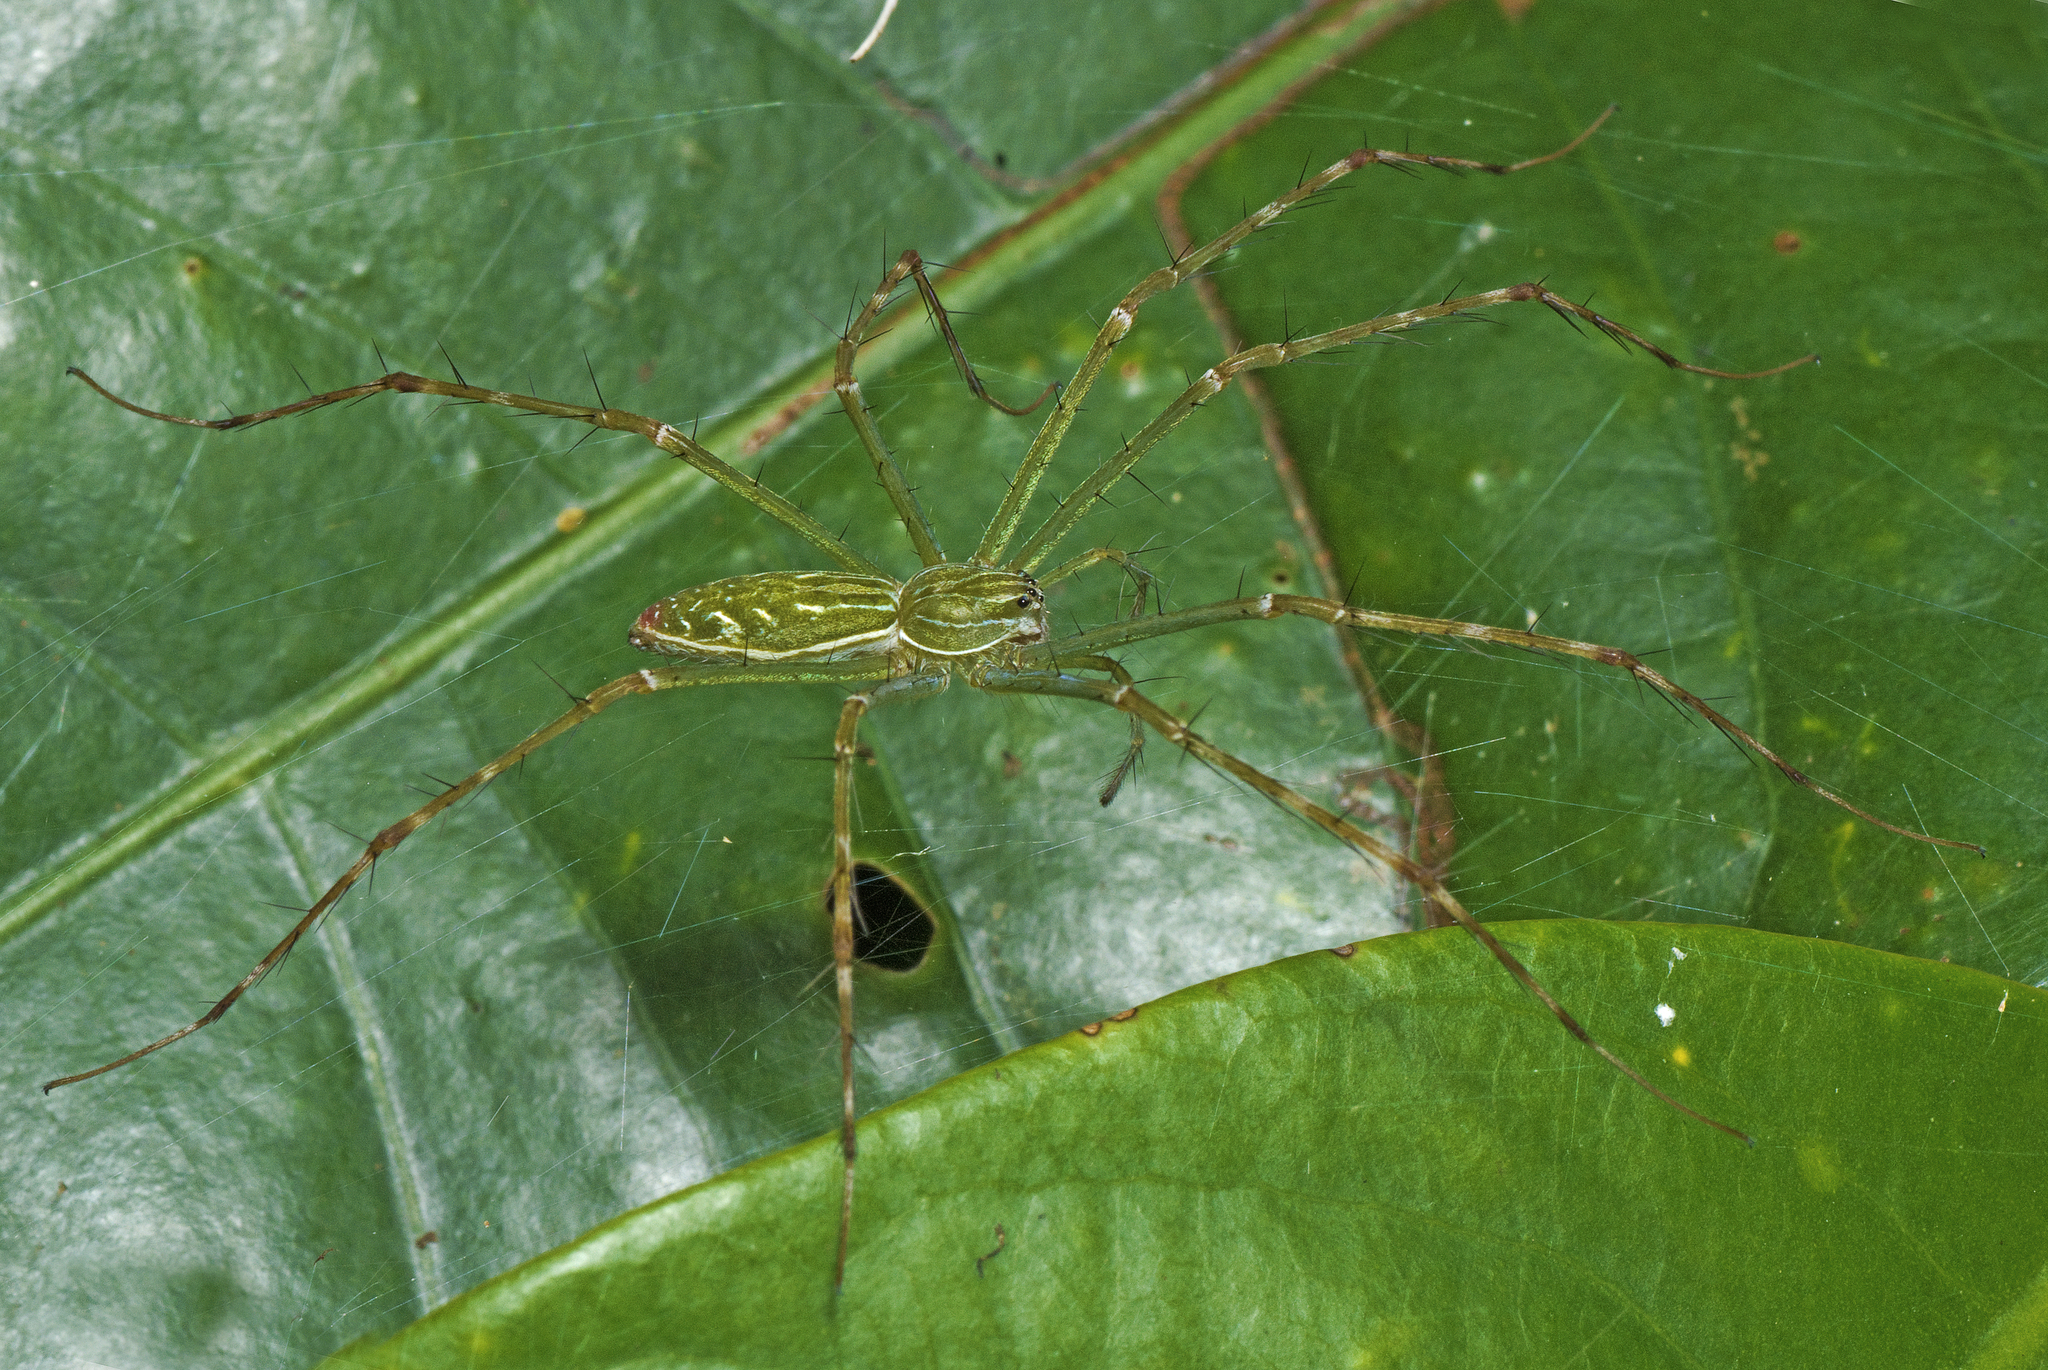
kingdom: Animalia
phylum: Arthropoda
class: Arachnida
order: Araneae
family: Pisauridae
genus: Hygropoda
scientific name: Hygropoda lineata
